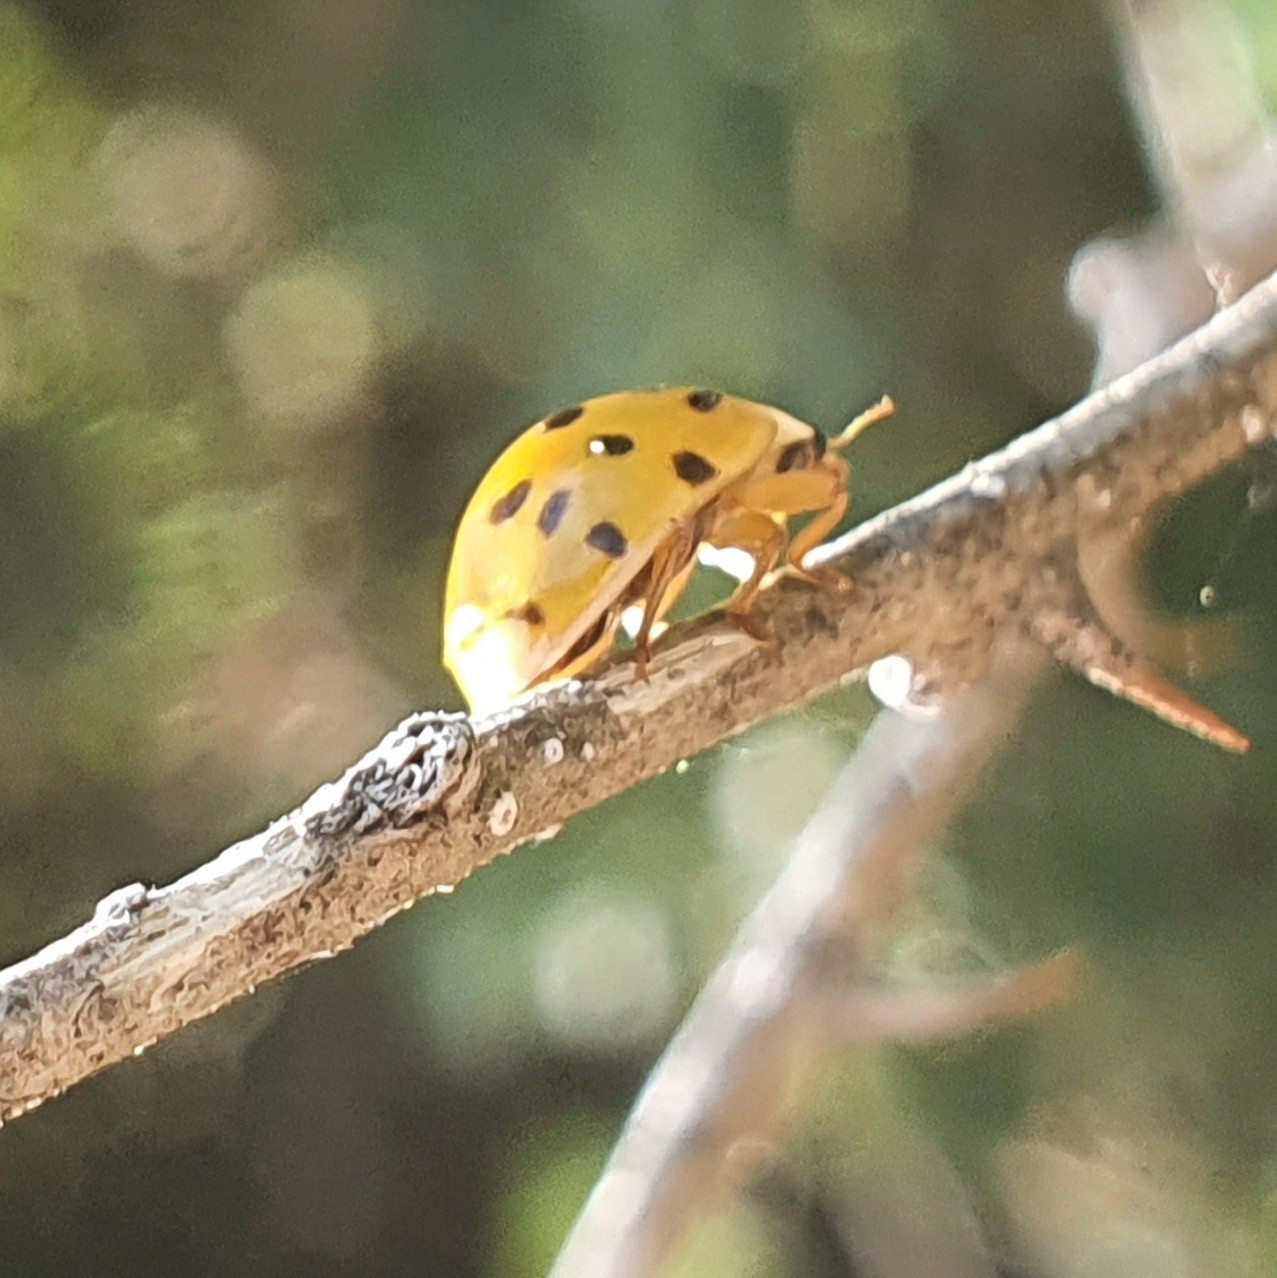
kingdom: Animalia
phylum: Arthropoda
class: Insecta
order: Coleoptera
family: Coccinellidae
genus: Harmonia
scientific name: Harmonia axyridis
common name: Harlequin ladybird
